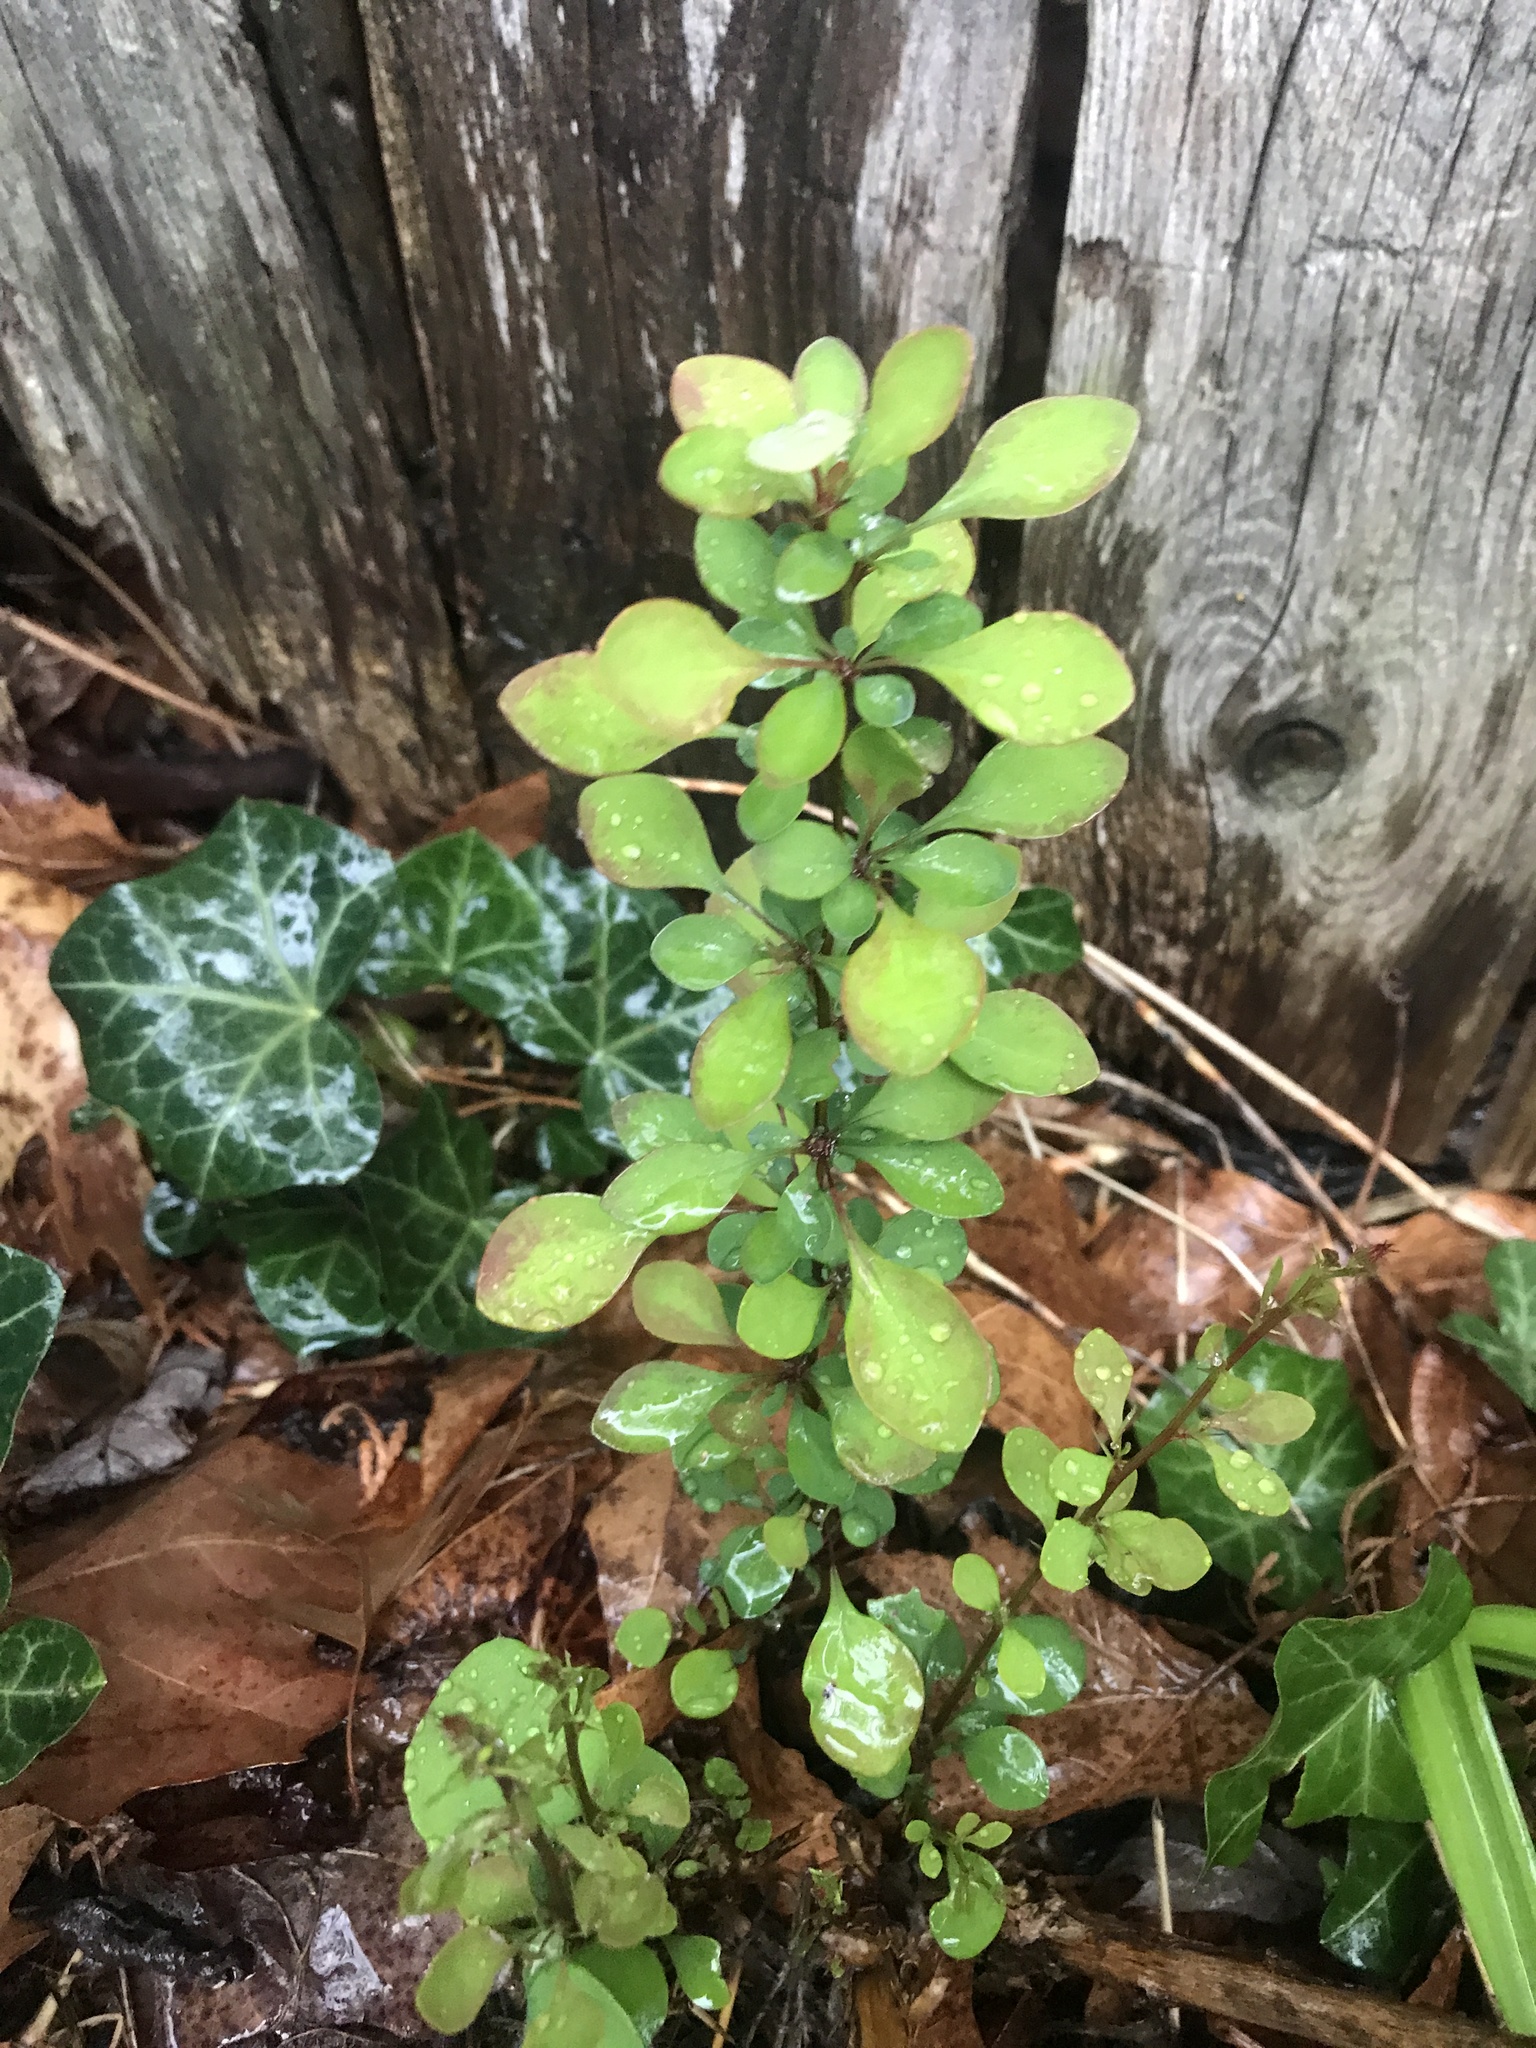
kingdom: Plantae
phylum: Tracheophyta
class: Magnoliopsida
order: Ranunculales
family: Berberidaceae
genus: Berberis
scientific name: Berberis thunbergii
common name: Japanese barberry
